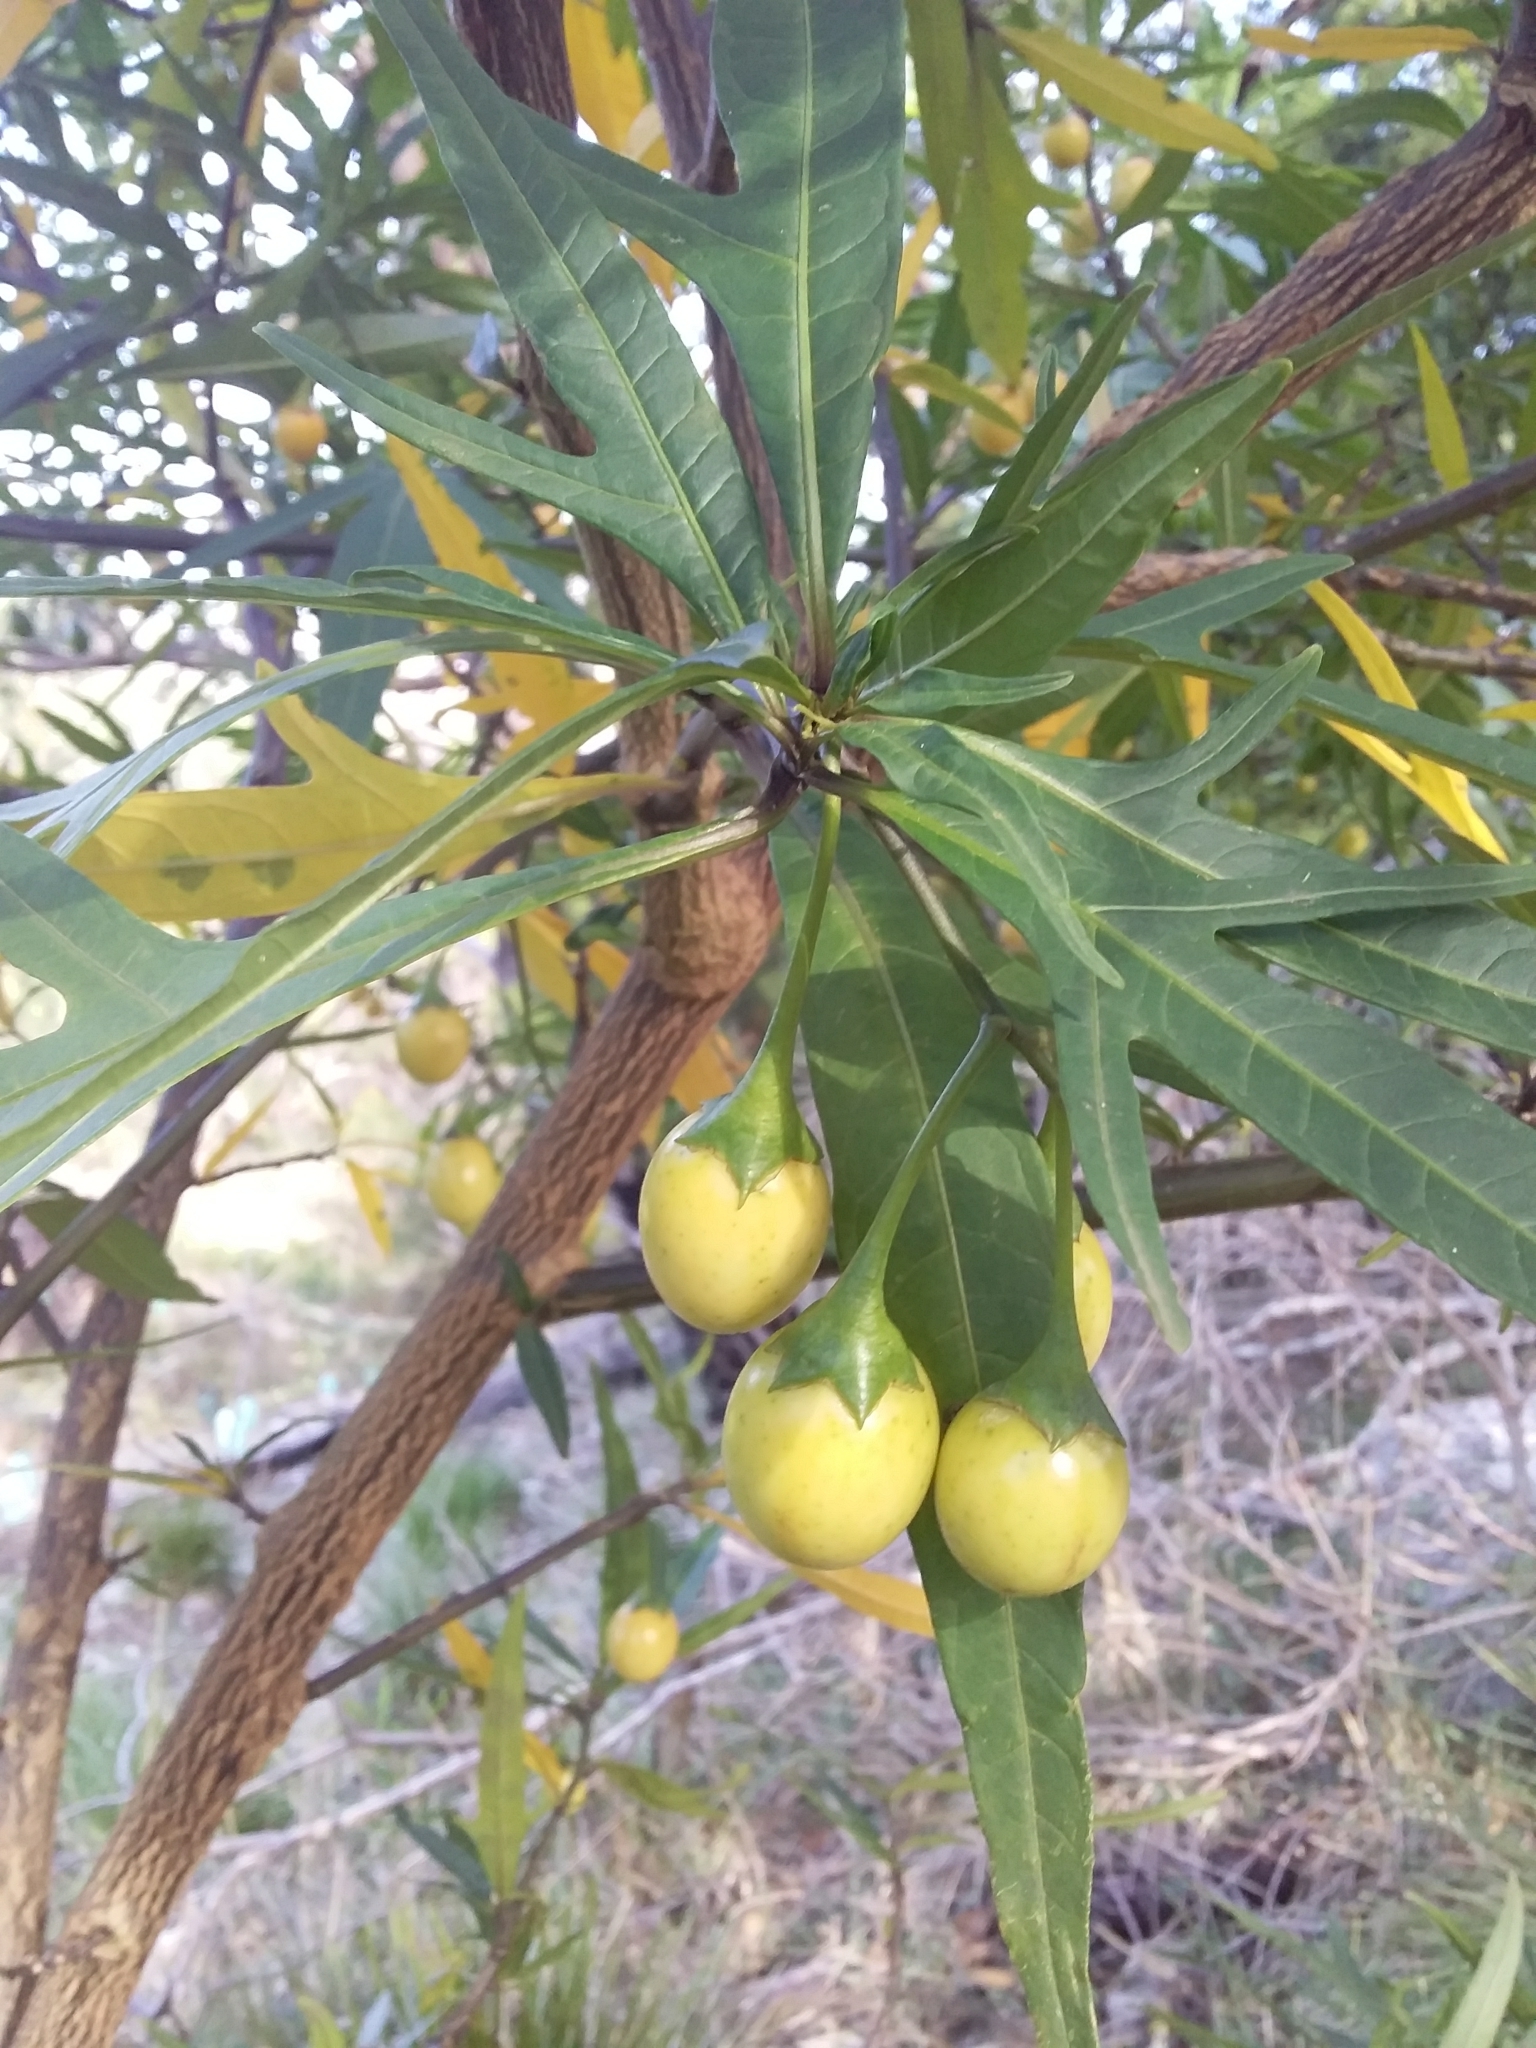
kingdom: Plantae
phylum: Tracheophyta
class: Magnoliopsida
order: Solanales
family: Solanaceae
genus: Solanum
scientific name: Solanum laciniatum
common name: Kangaroo-apple
